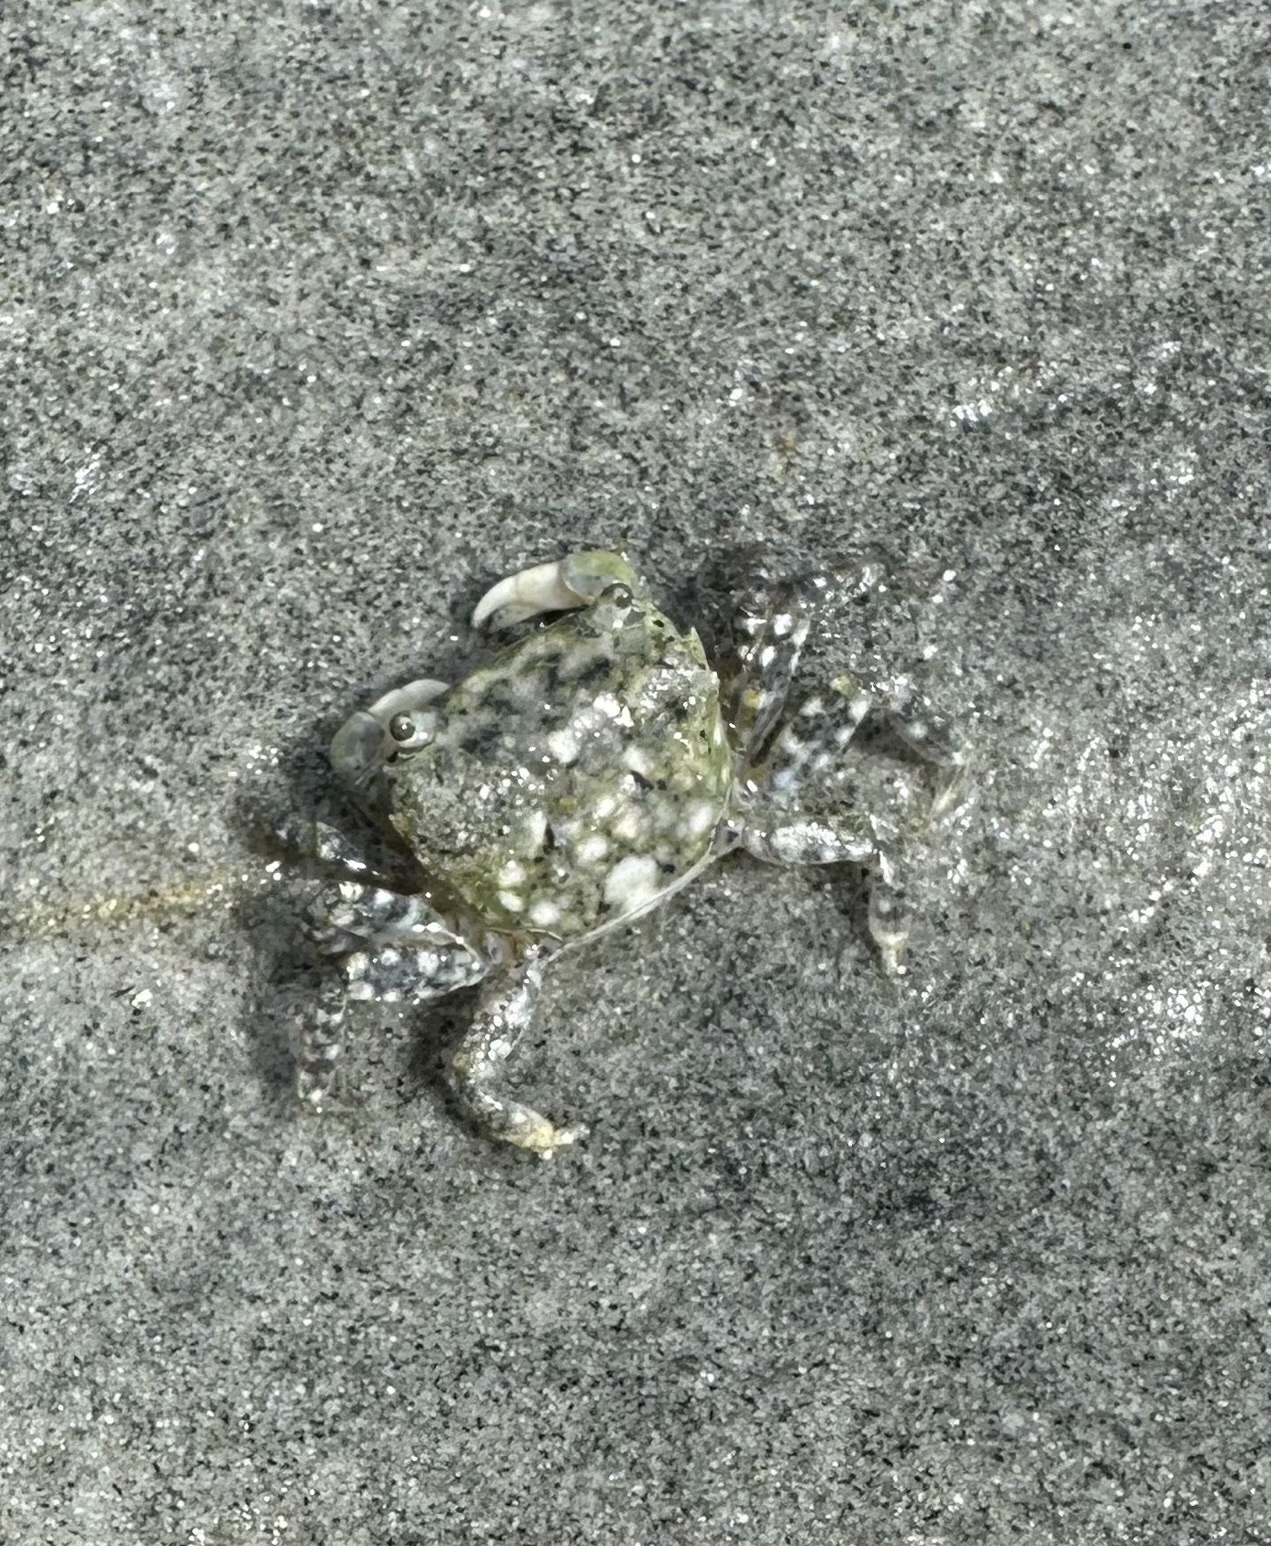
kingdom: Animalia
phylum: Arthropoda
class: Malacostraca
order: Decapoda
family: Varunidae
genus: Hemigrapsus
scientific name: Hemigrapsus oregonensis
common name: Yellow shore crab
